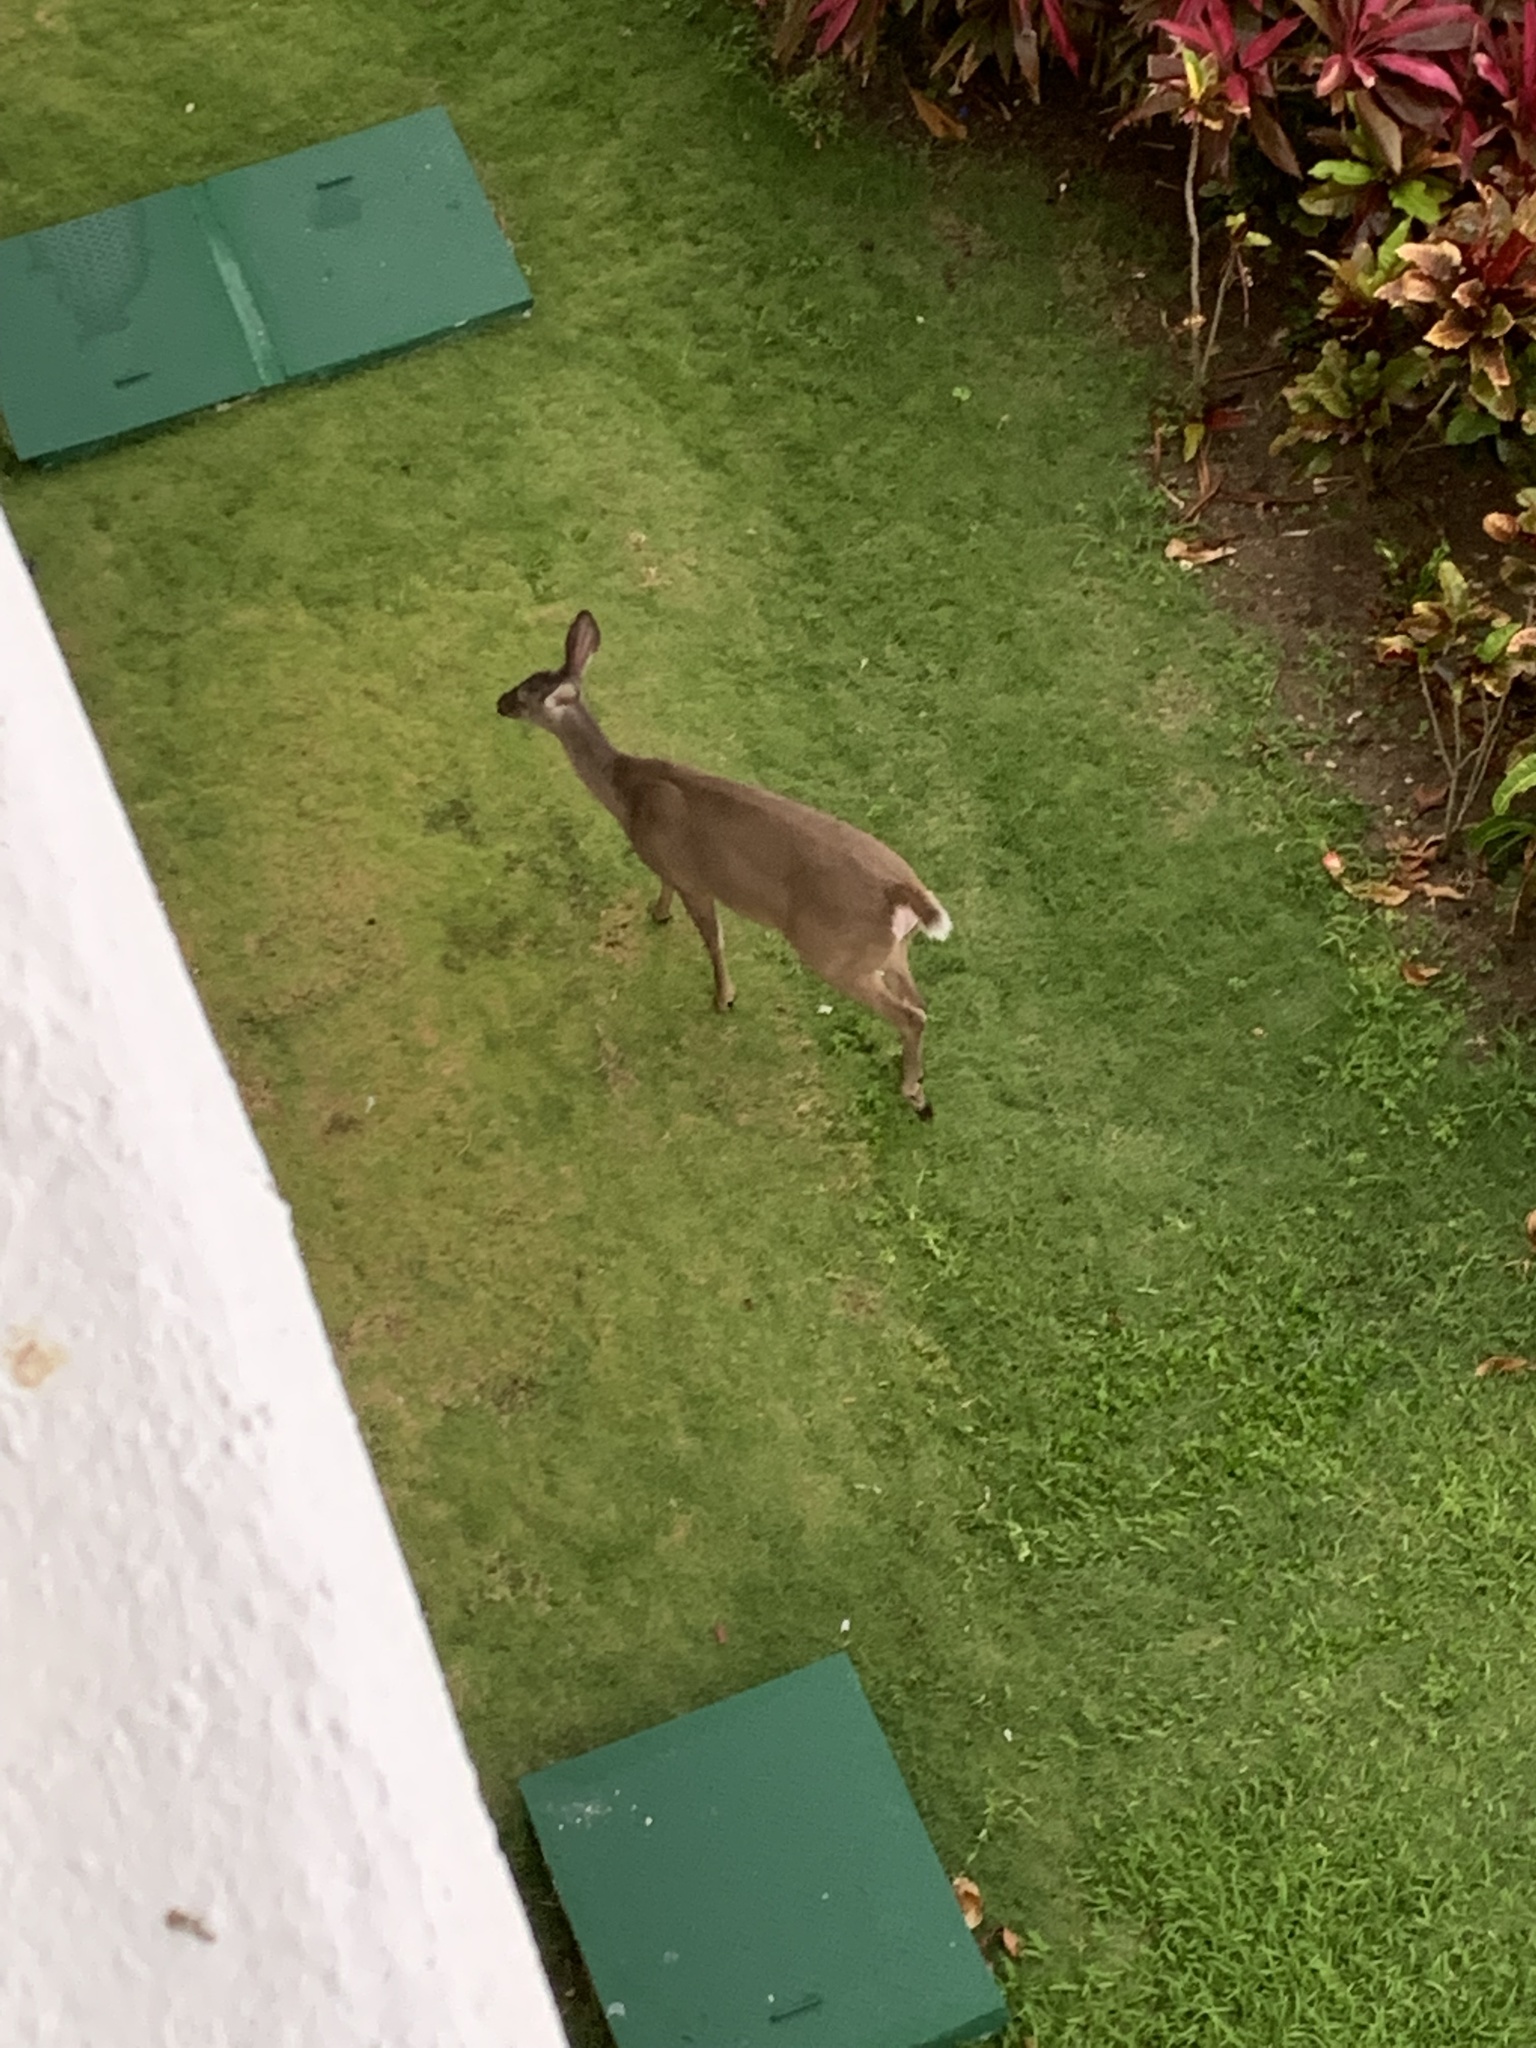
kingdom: Animalia
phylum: Chordata
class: Mammalia
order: Artiodactyla
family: Cervidae
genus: Odocoileus
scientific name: Odocoileus virginianus
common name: White-tailed deer
